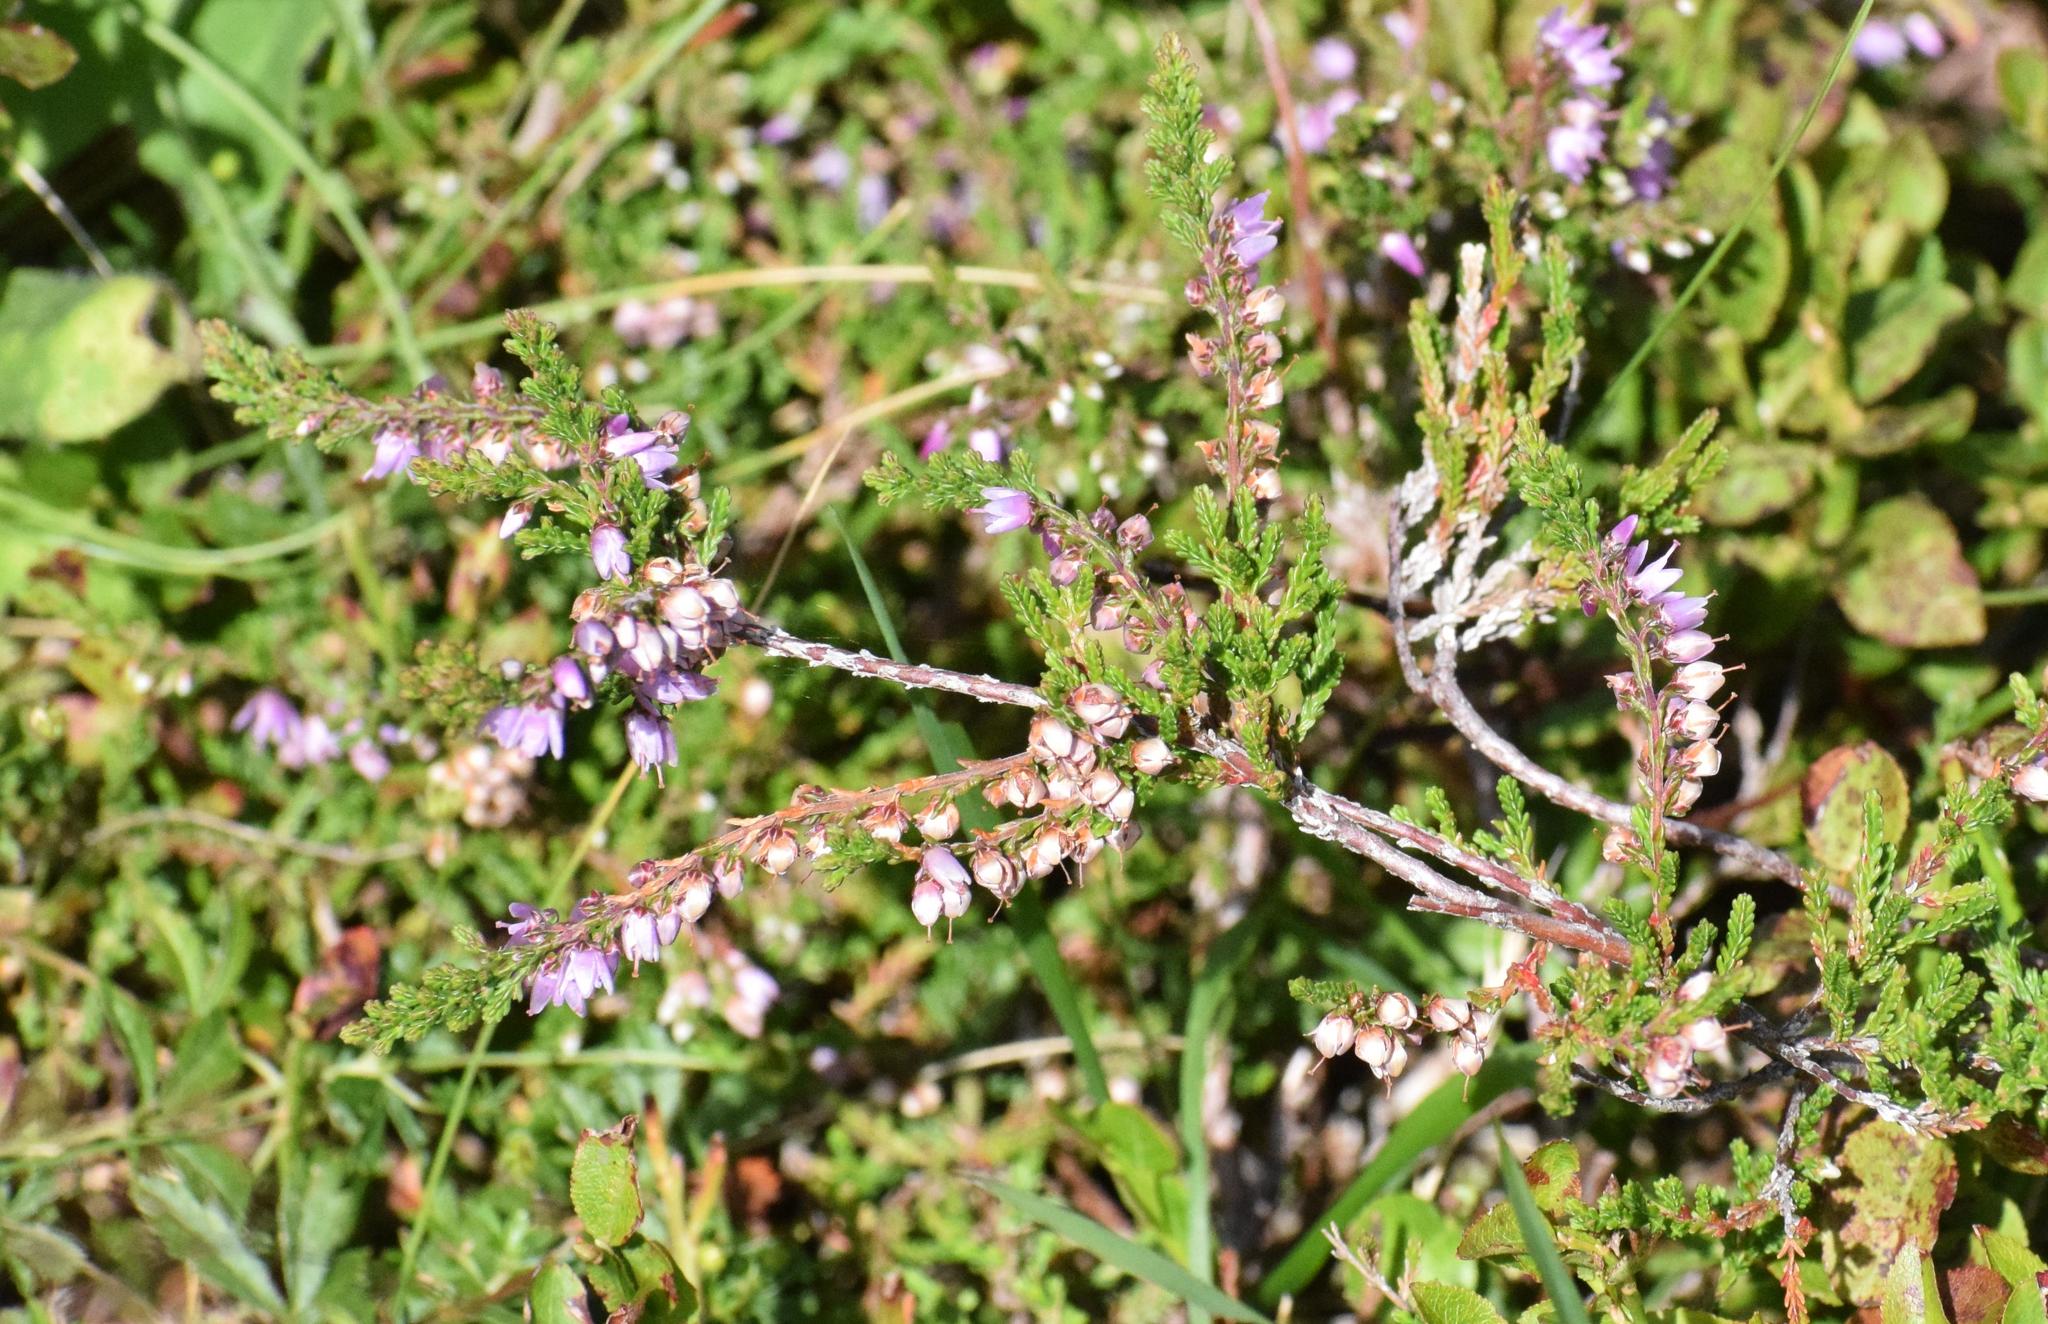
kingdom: Plantae
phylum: Tracheophyta
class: Magnoliopsida
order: Ericales
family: Ericaceae
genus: Calluna
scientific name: Calluna vulgaris
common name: Heather
